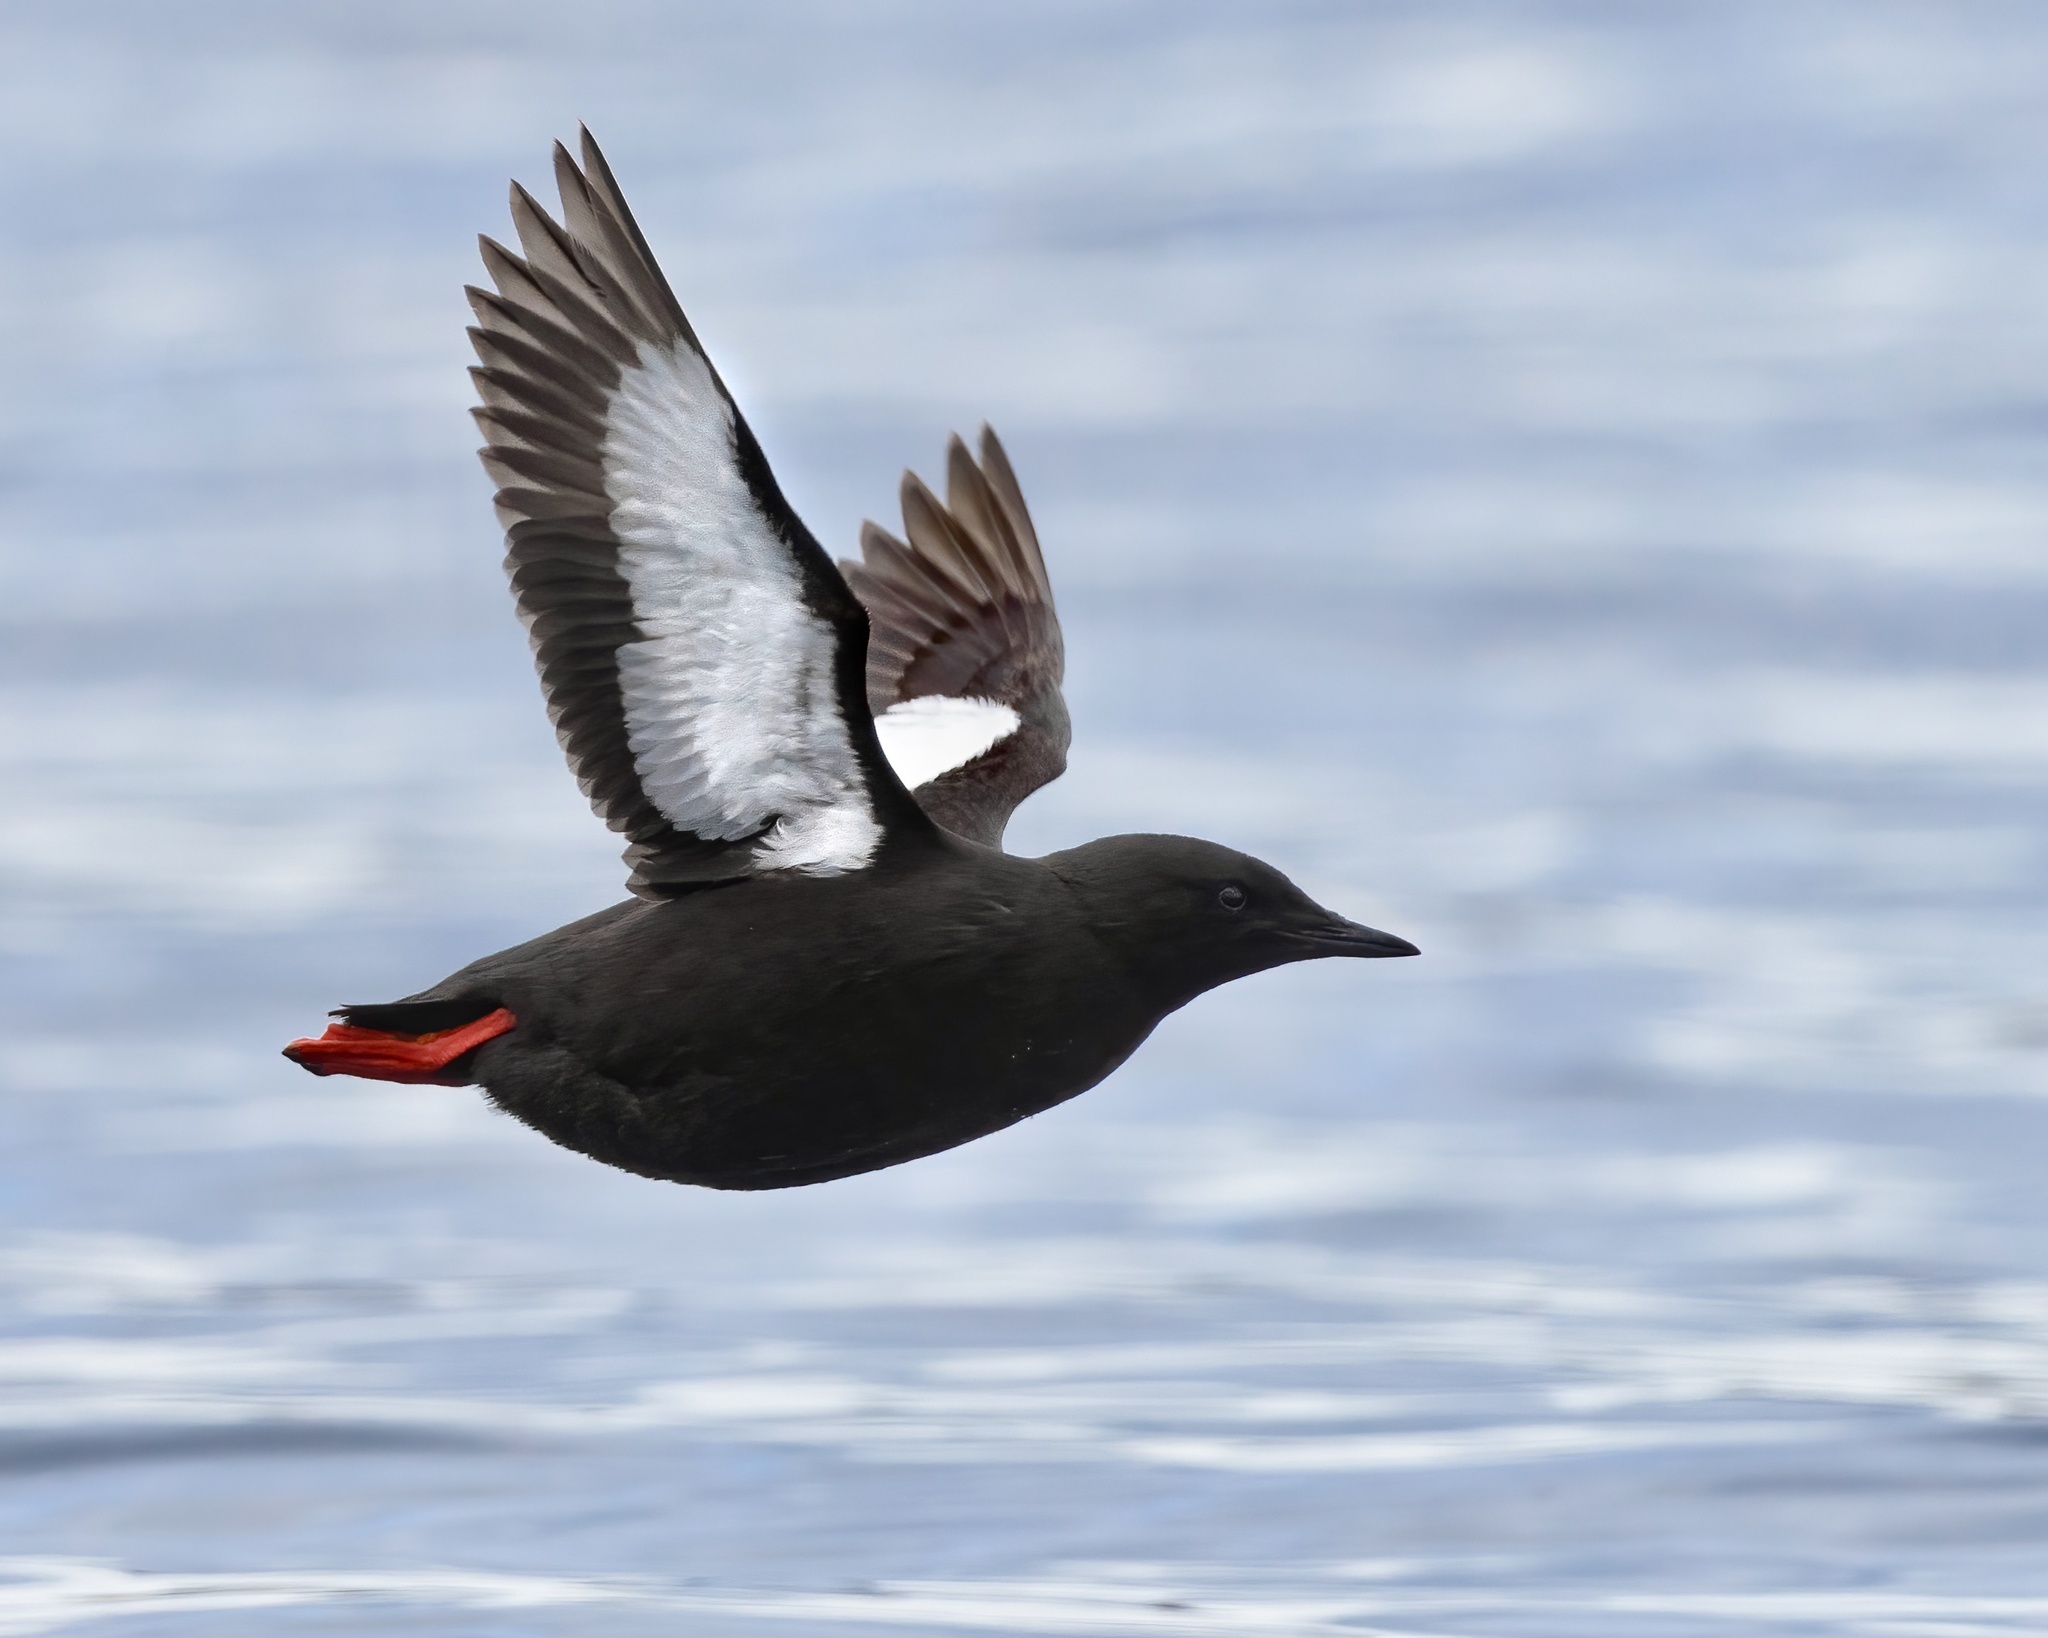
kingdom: Animalia
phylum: Chordata
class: Aves
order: Charadriiformes
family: Alcidae
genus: Cepphus
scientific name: Cepphus grylle
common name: Black guillemot
